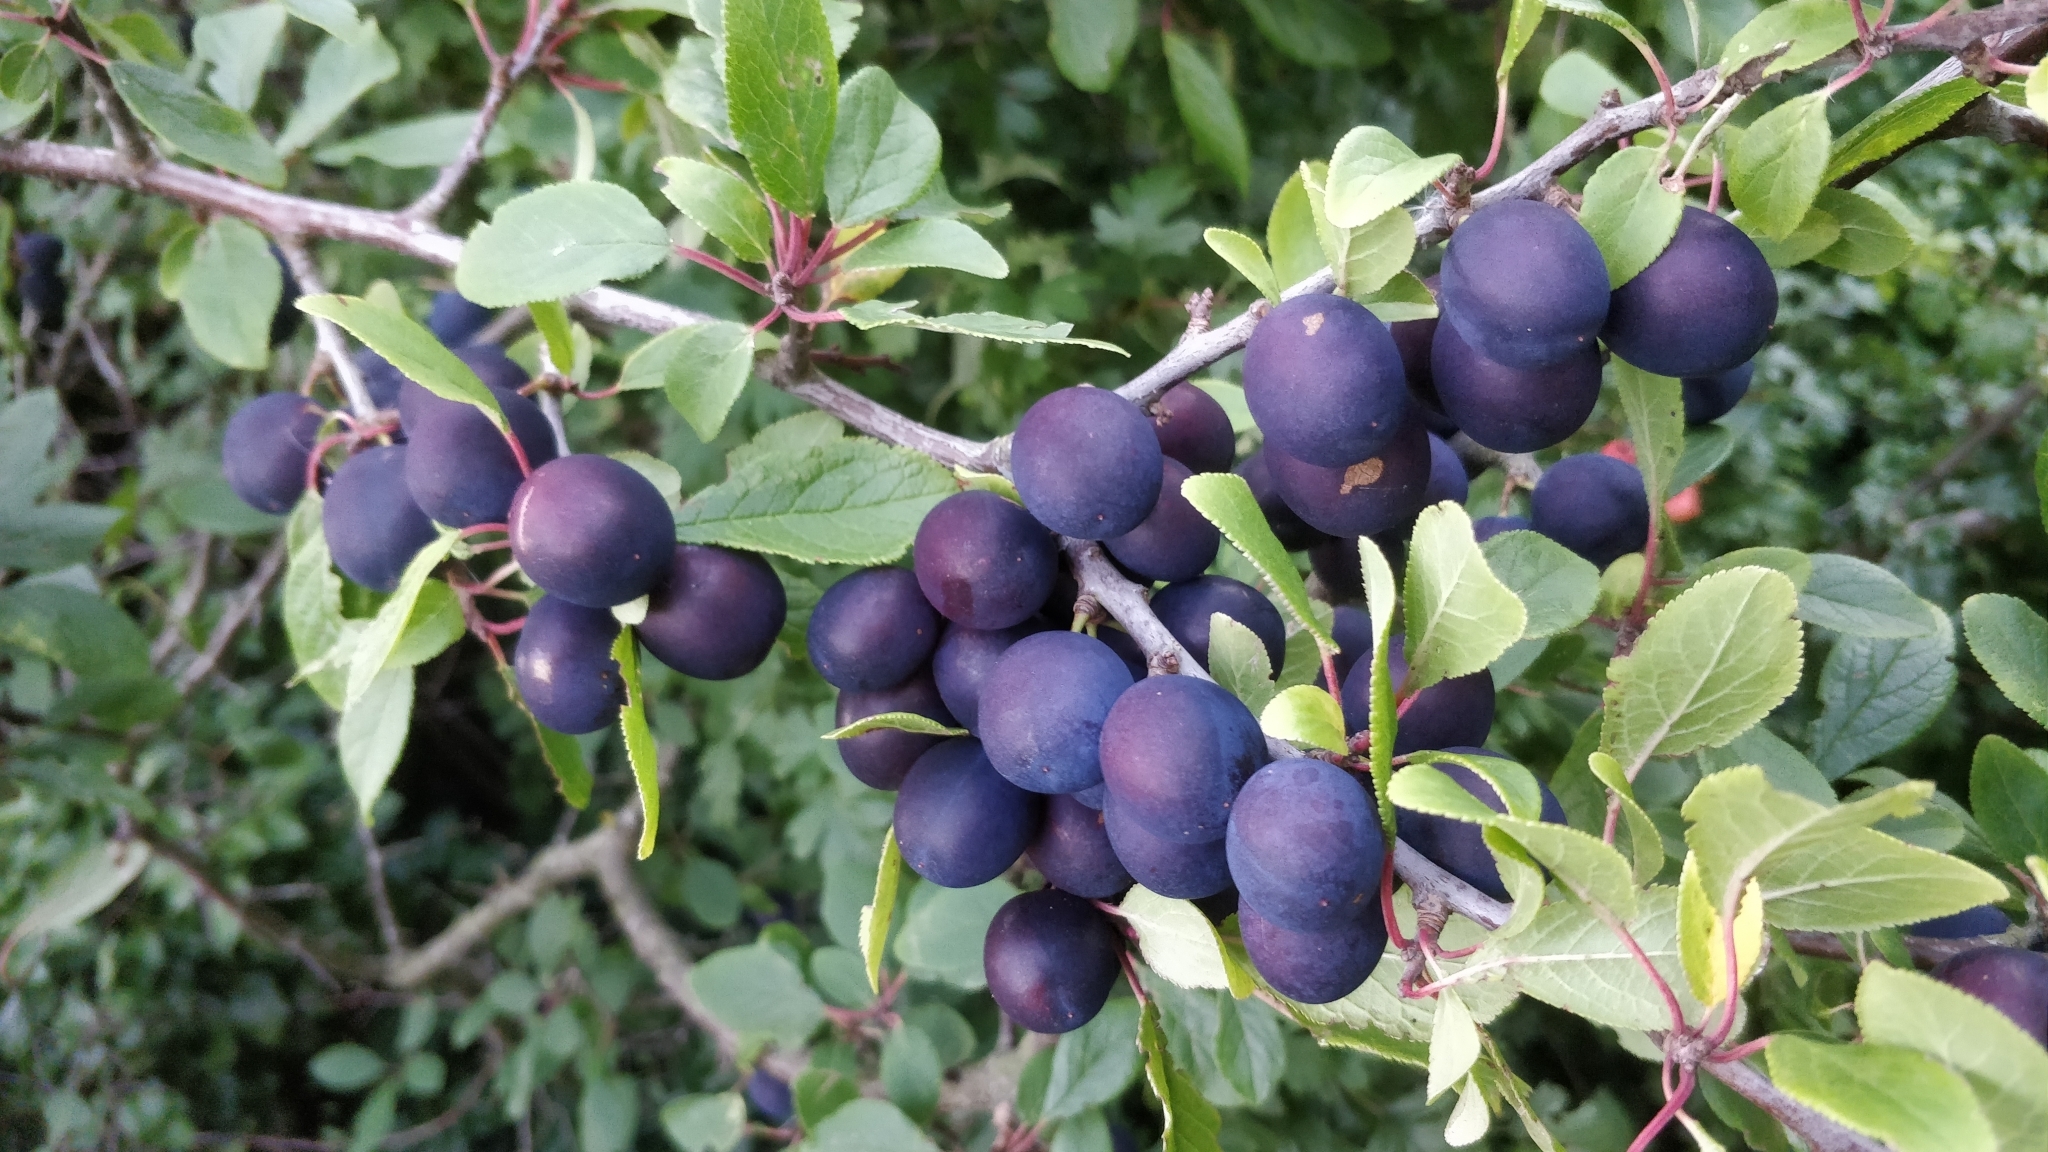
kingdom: Plantae
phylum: Tracheophyta
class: Magnoliopsida
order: Rosales
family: Rosaceae
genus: Prunus
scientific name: Prunus spinosa
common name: Blackthorn
